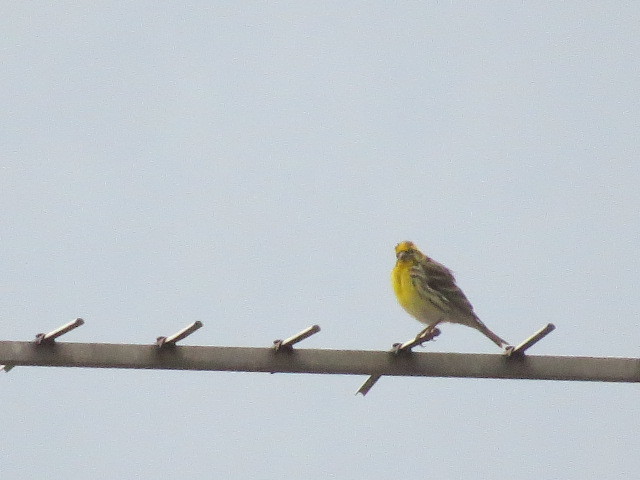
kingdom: Animalia
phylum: Chordata
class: Aves
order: Passeriformes
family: Fringillidae
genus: Serinus
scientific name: Serinus serinus
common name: European serin
